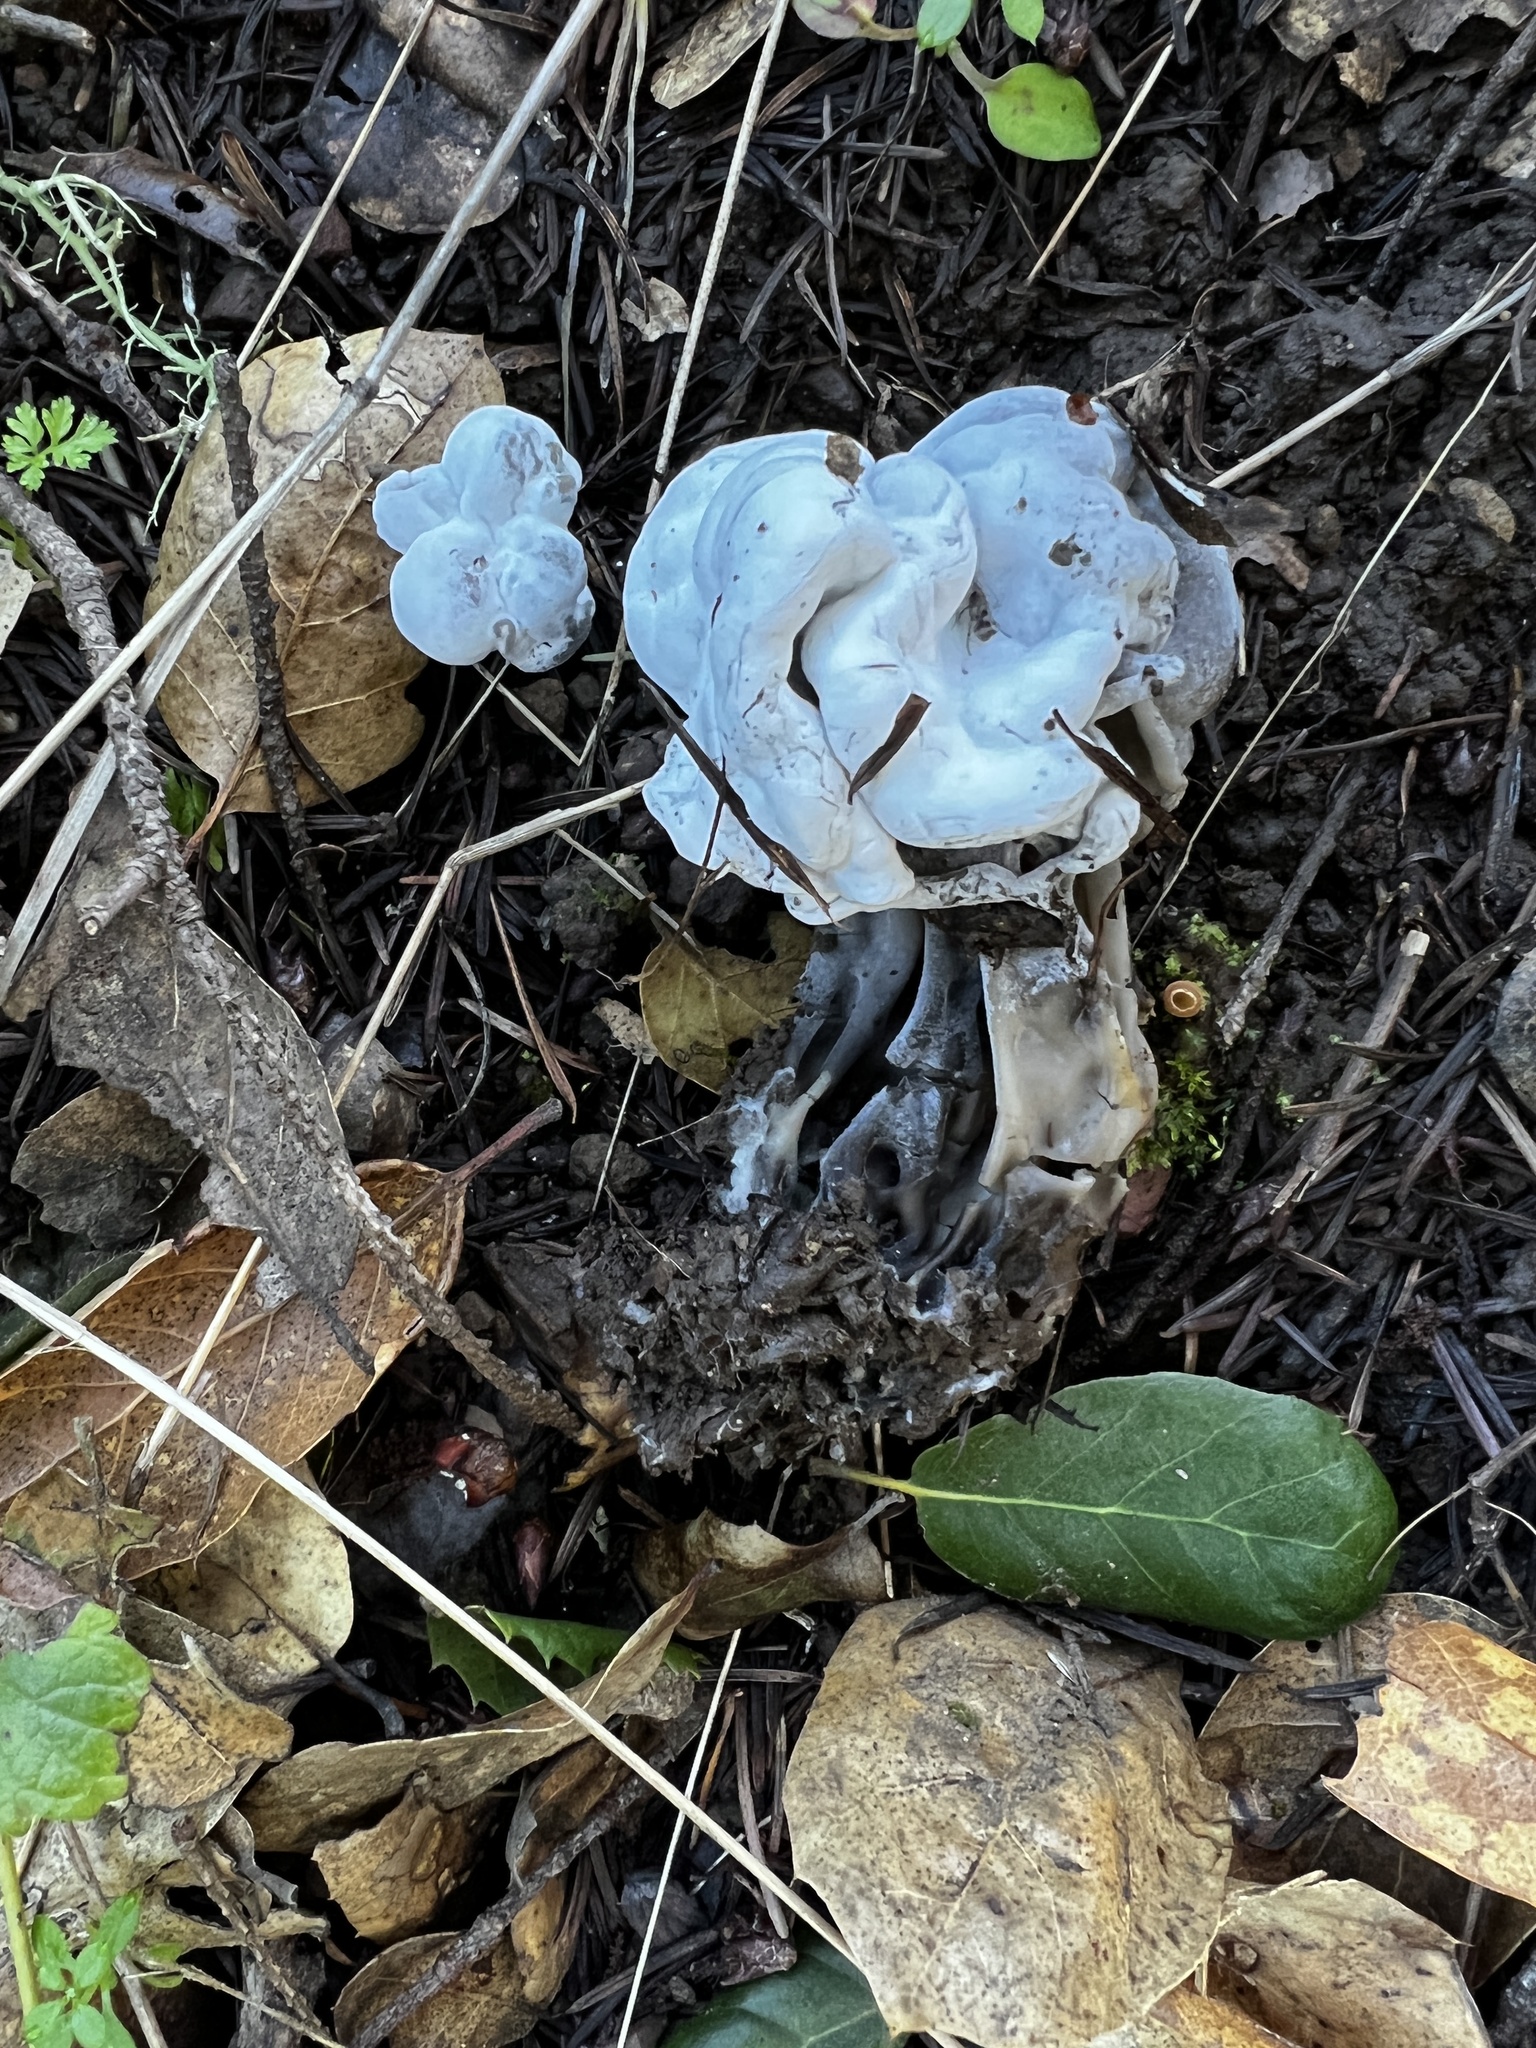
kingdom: Fungi
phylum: Ascomycota
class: Sordariomycetes
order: Hypocreales
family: Hypocreaceae
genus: Hypomyces
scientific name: Hypomyces cervinus
